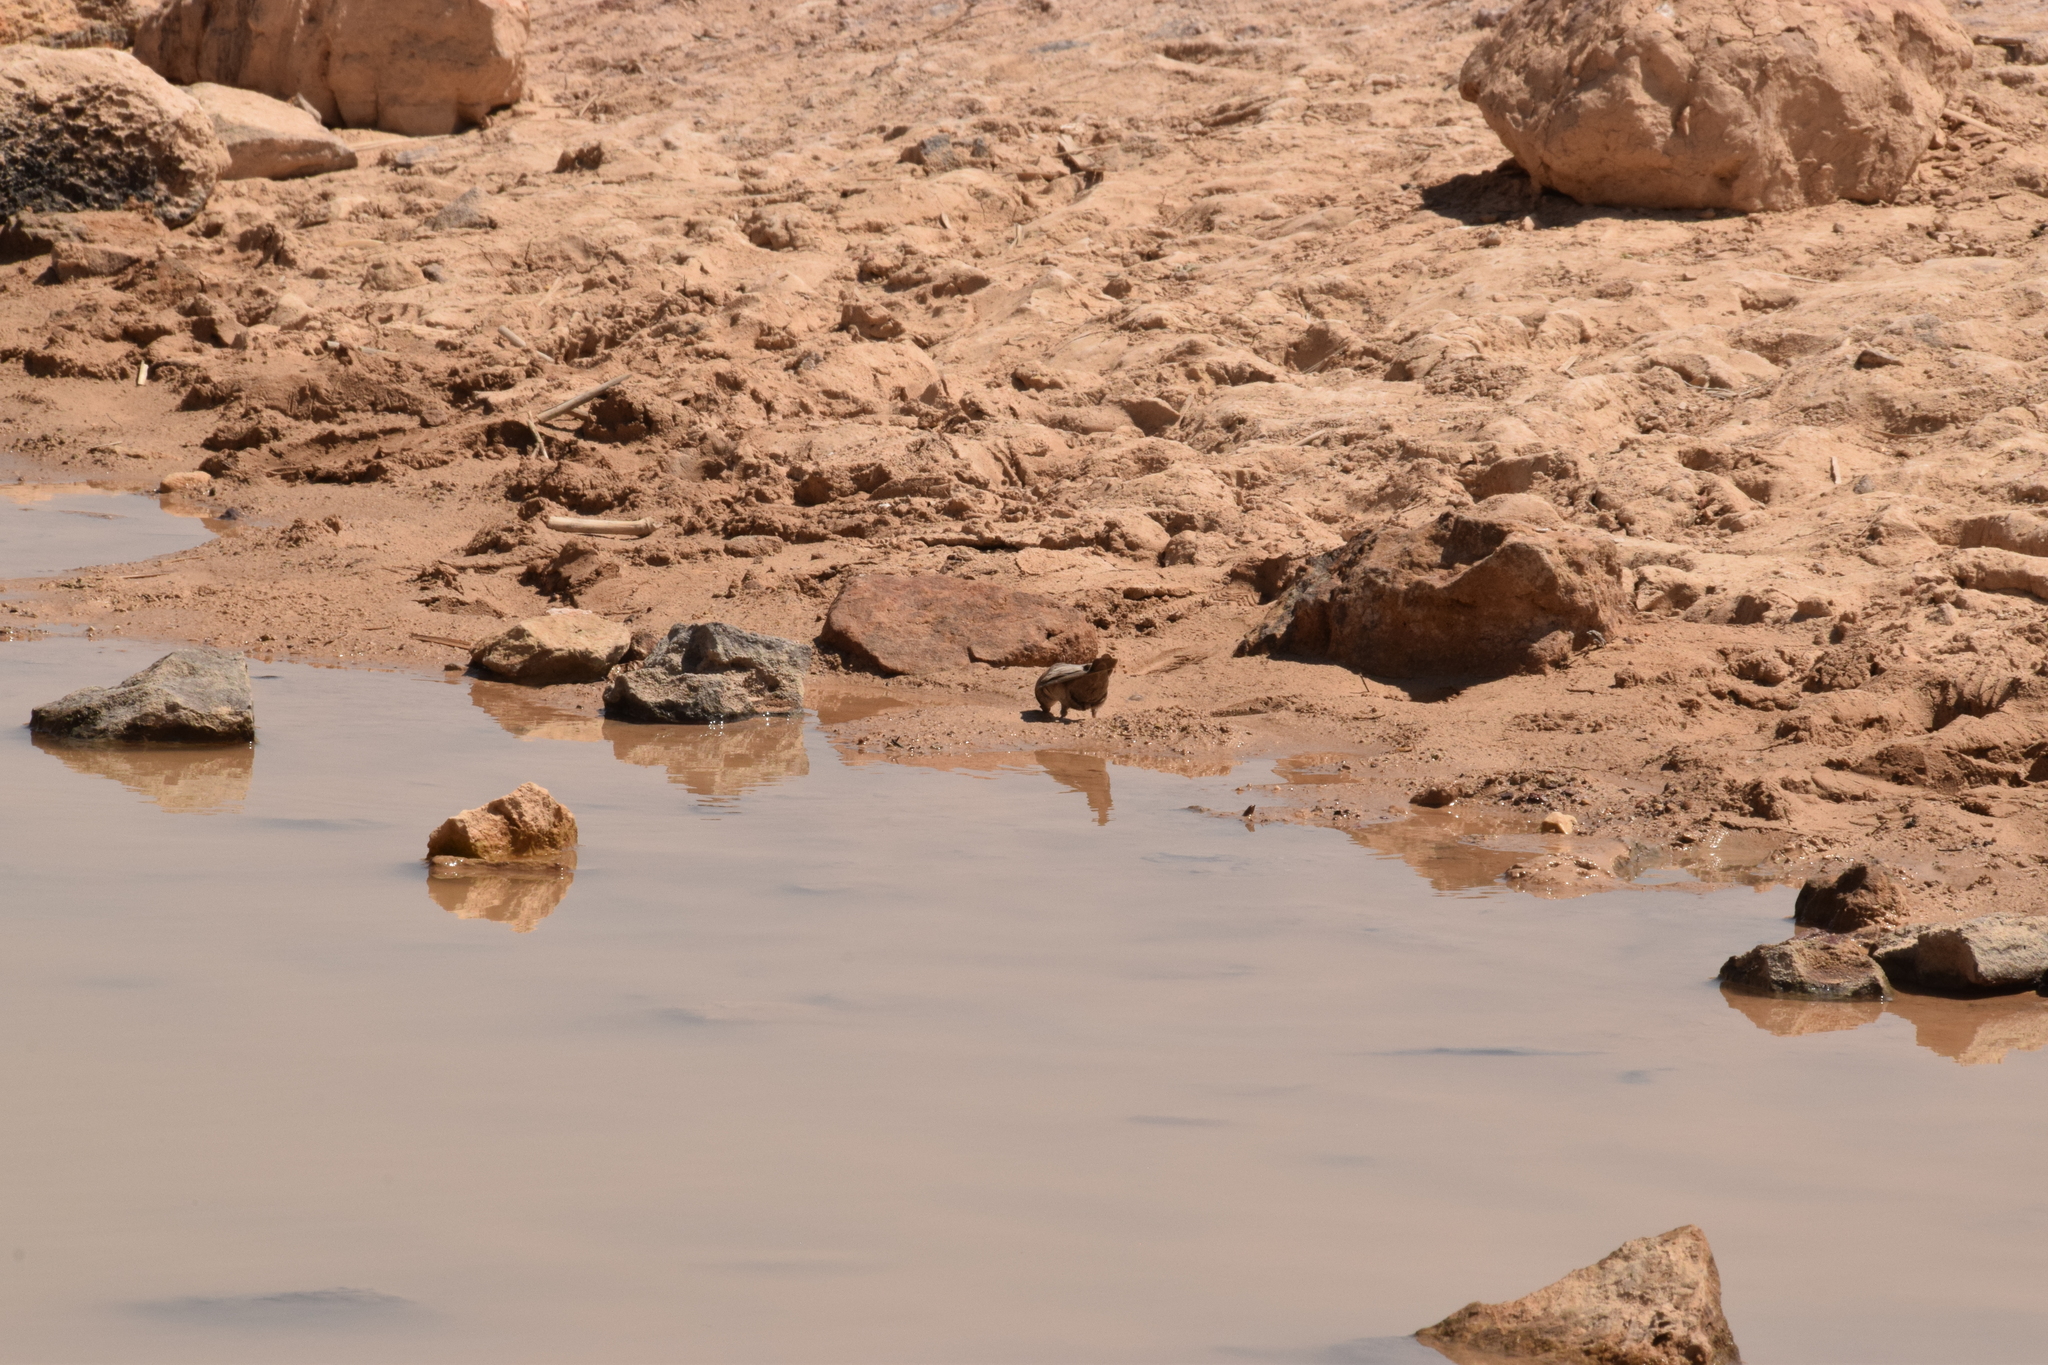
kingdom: Animalia
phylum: Chordata
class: Aves
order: Passeriformes
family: Hirundinidae
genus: Ptyonoprogne
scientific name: Ptyonoprogne fuligula
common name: Rock martin
